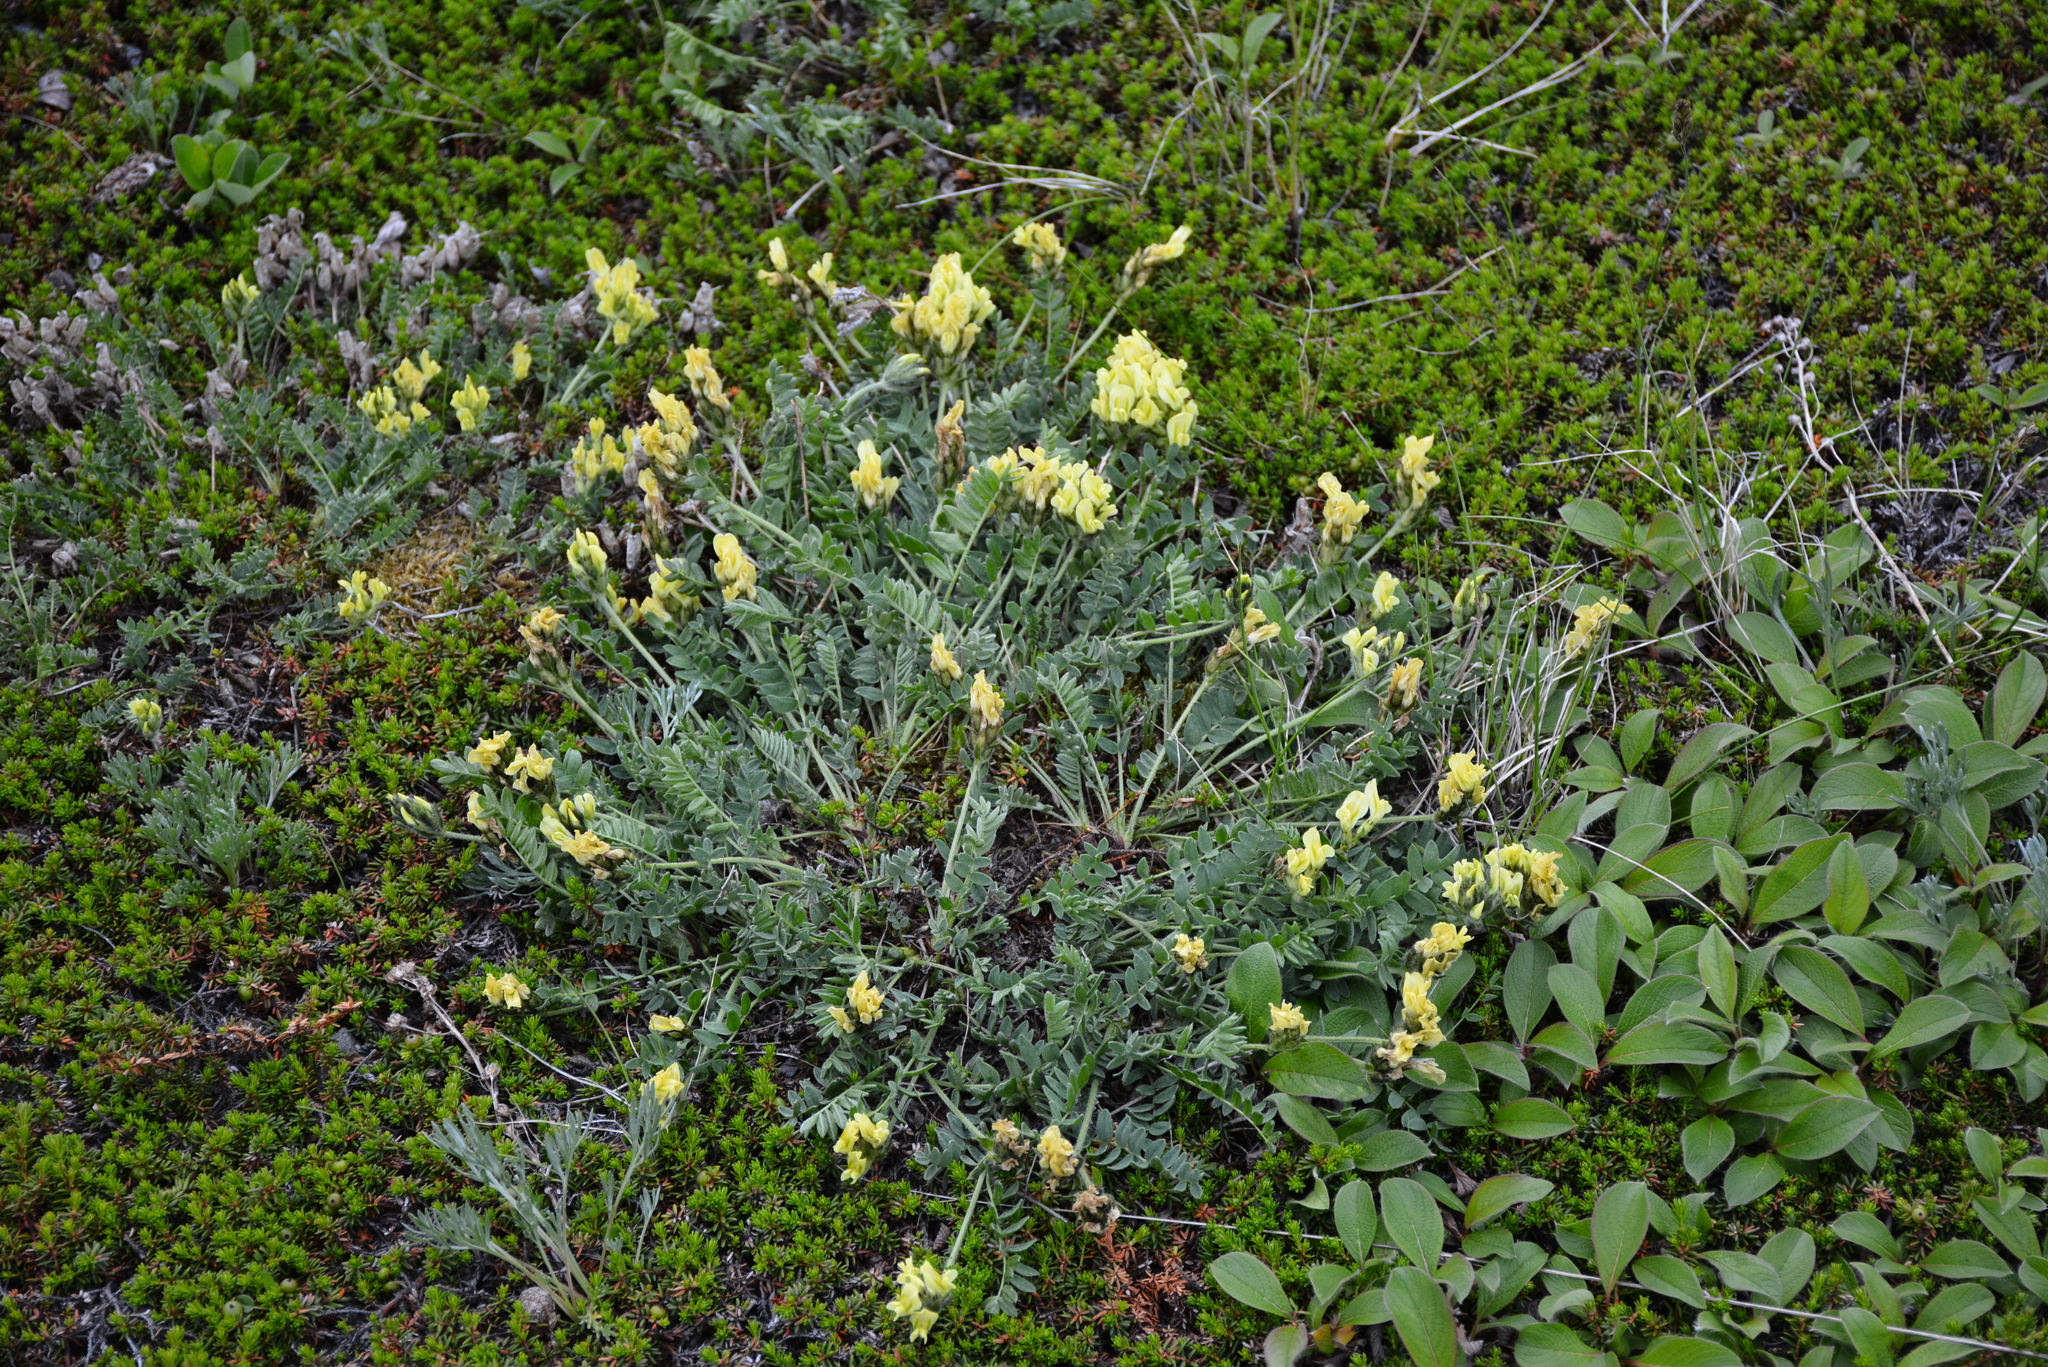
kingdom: Plantae
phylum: Tracheophyta
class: Magnoliopsida
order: Fabales
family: Fabaceae
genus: Oxytropis
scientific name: Oxytropis maydelliana
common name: Maydell's locoweed
